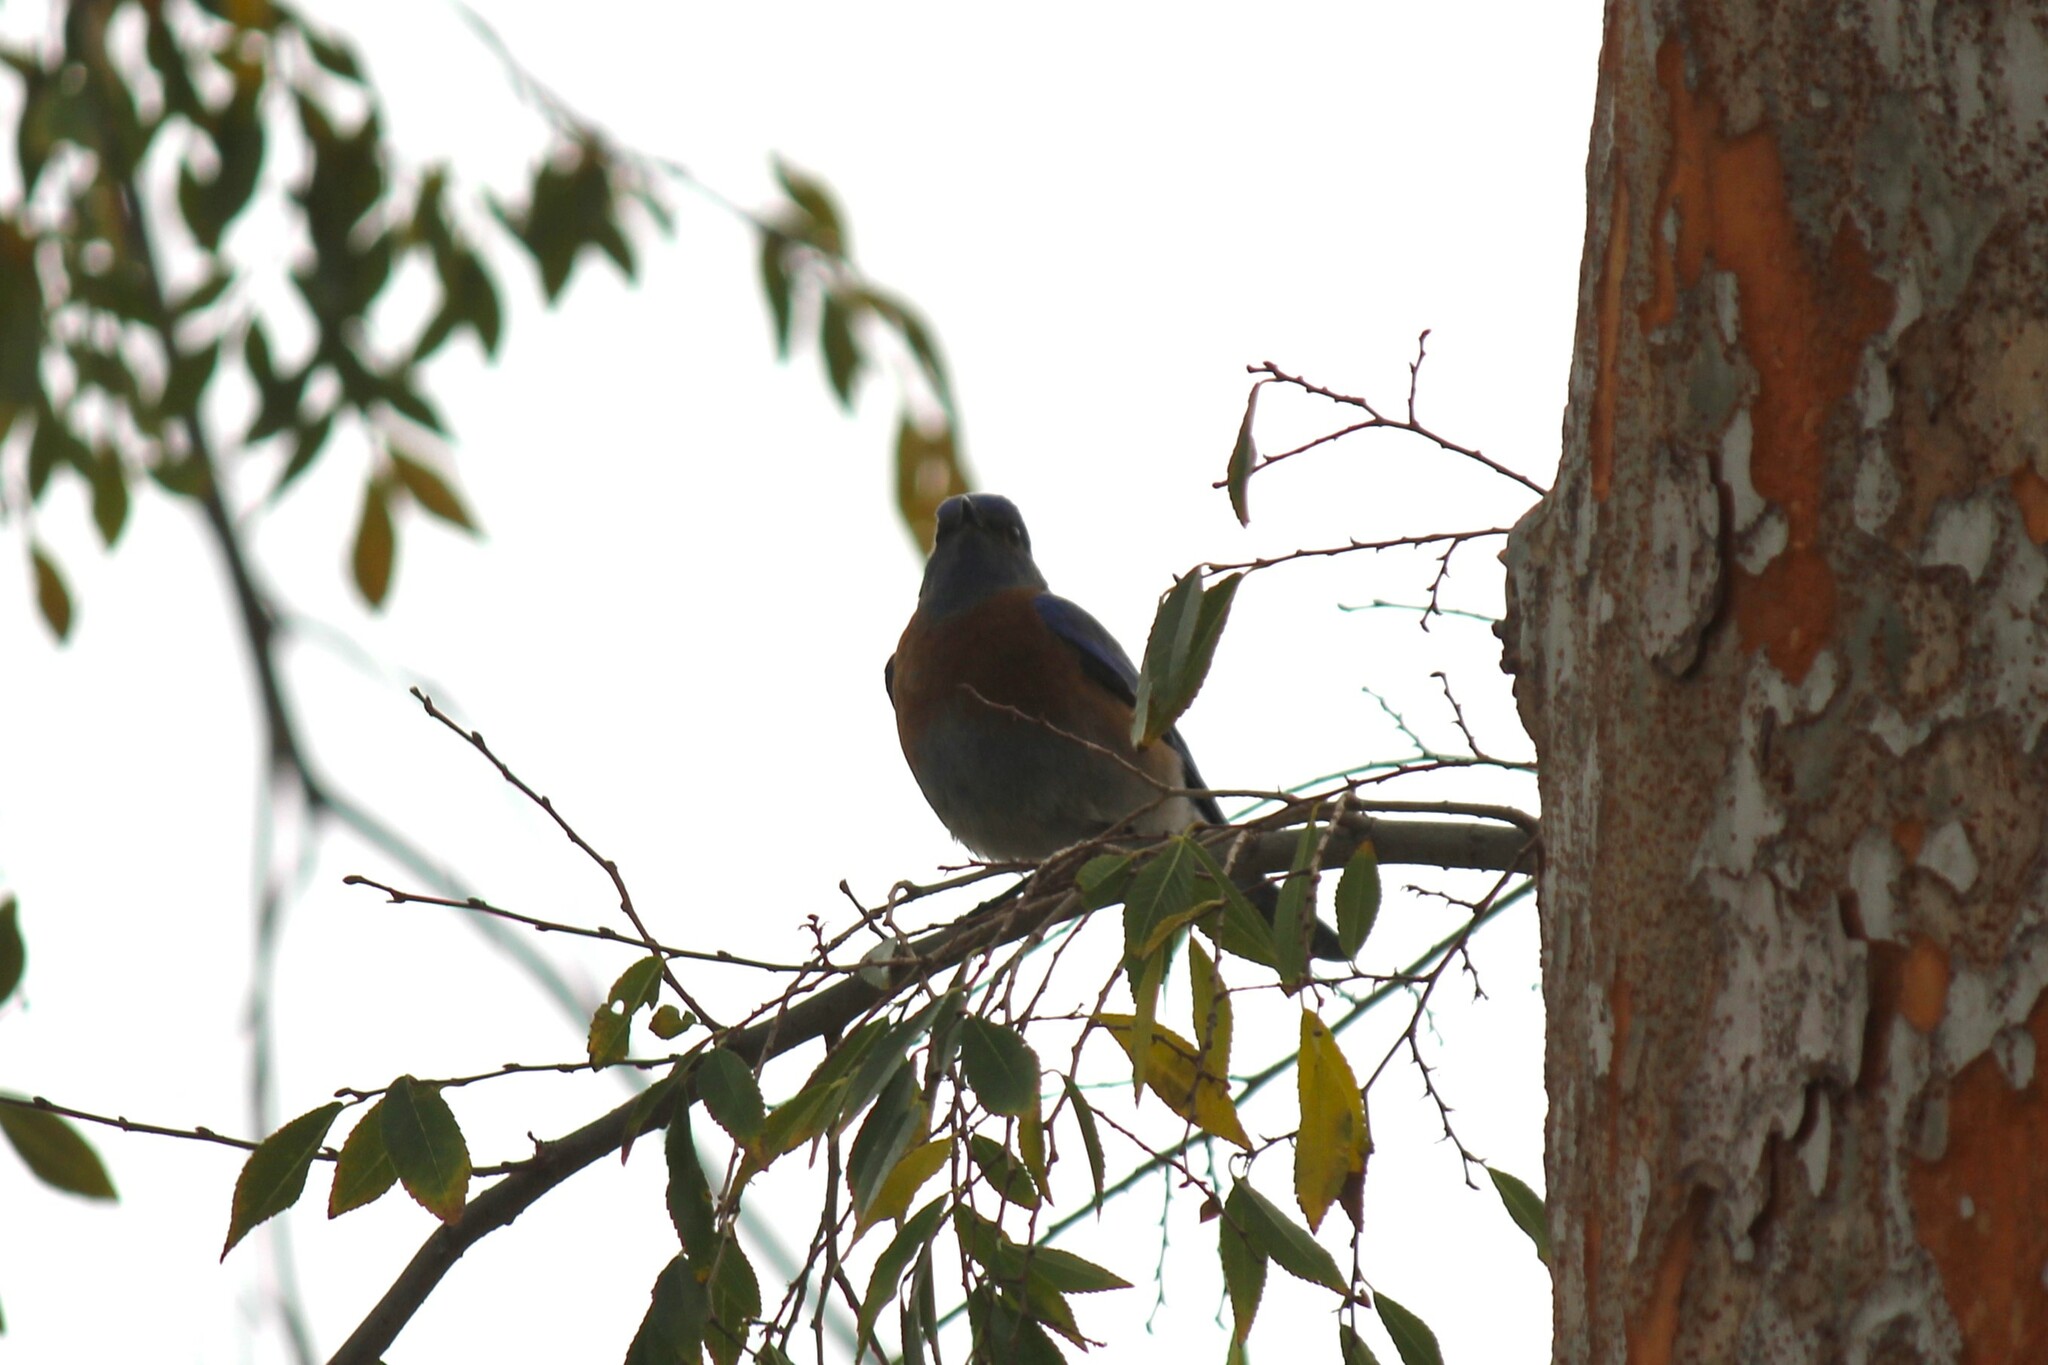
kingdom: Animalia
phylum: Chordata
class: Aves
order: Passeriformes
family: Turdidae
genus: Sialia
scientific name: Sialia mexicana
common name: Western bluebird
